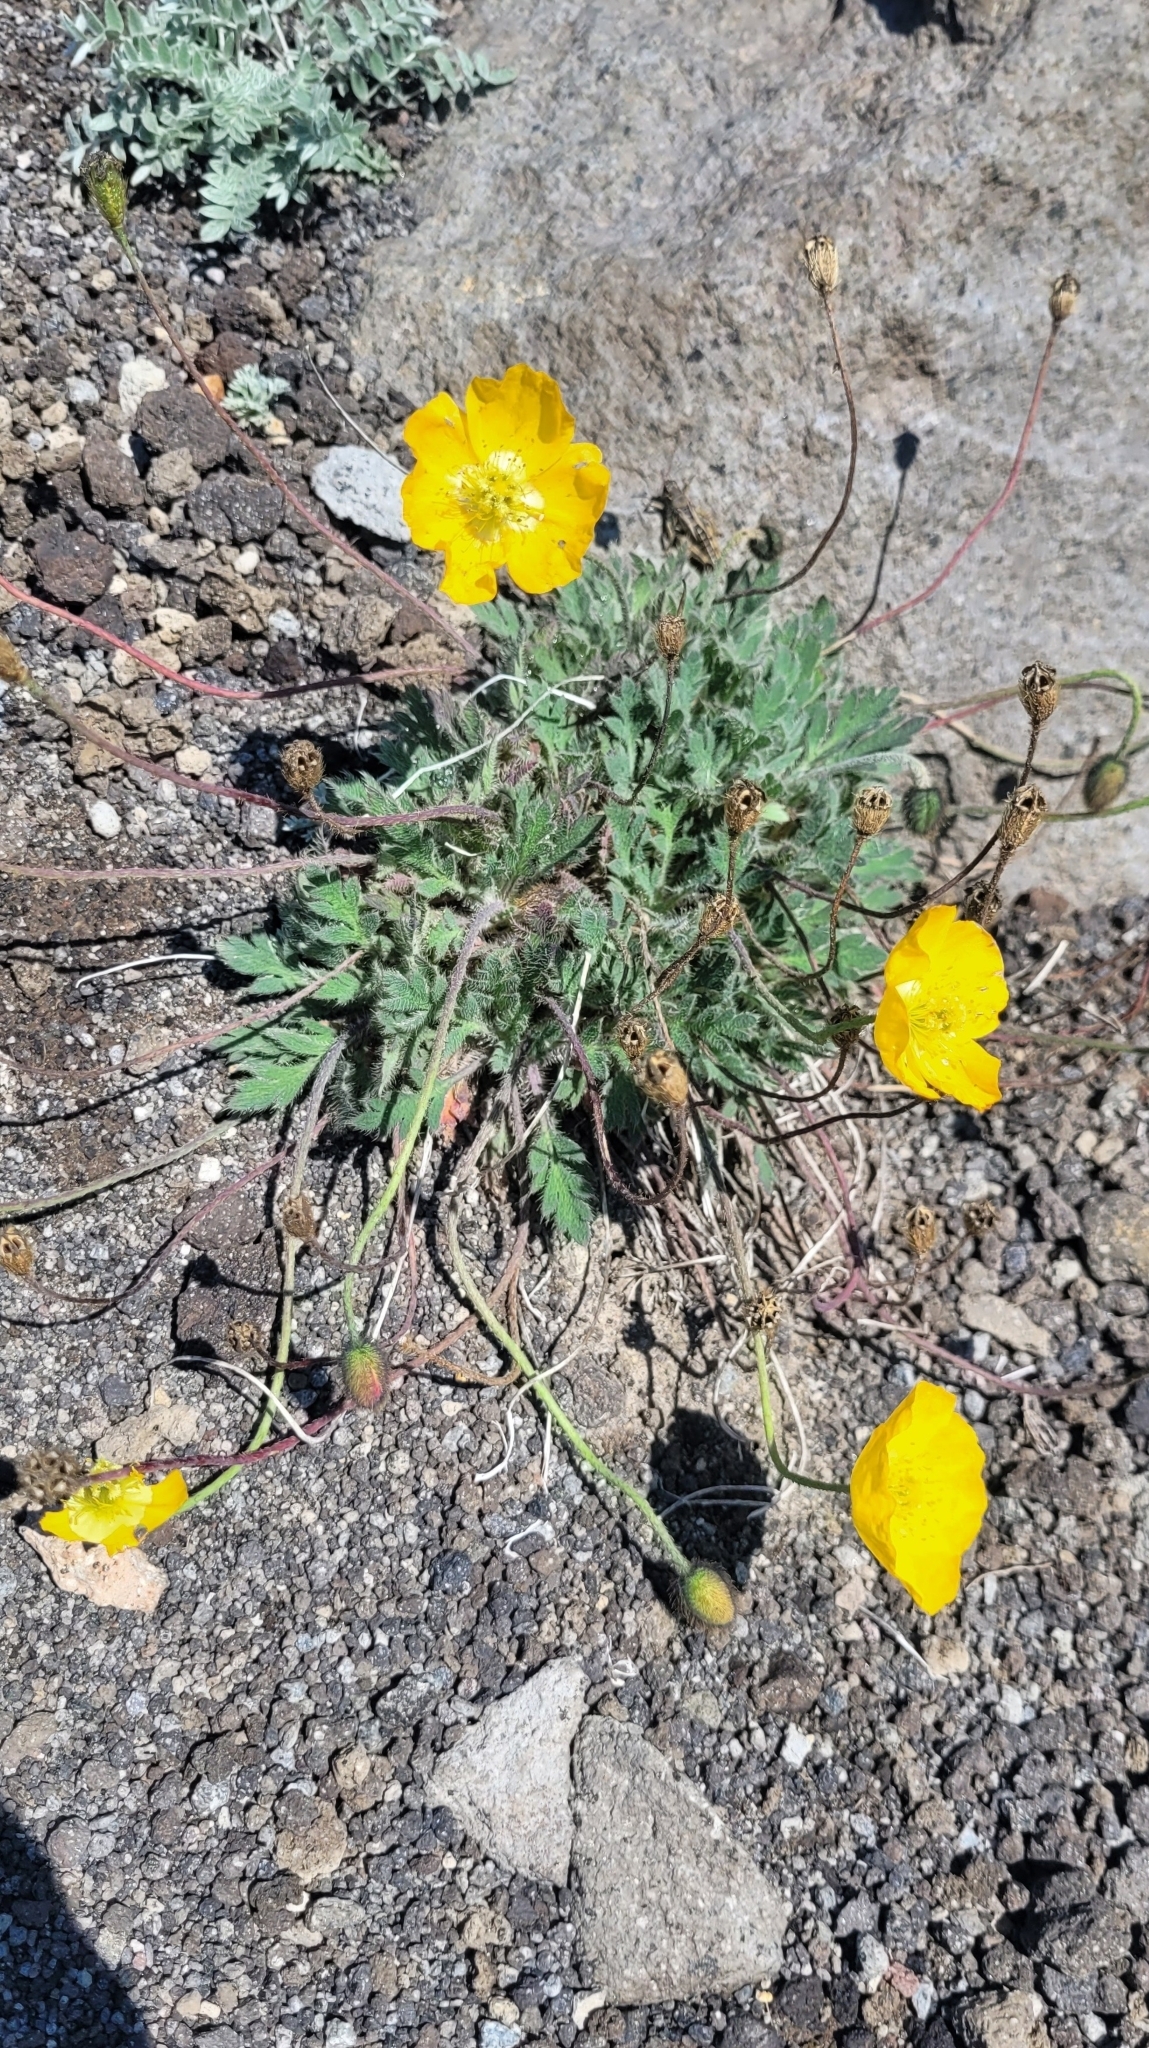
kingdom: Plantae
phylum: Tracheophyta
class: Magnoliopsida
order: Ranunculales
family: Papaveraceae
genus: Papaver
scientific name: Papaver microcarpum
